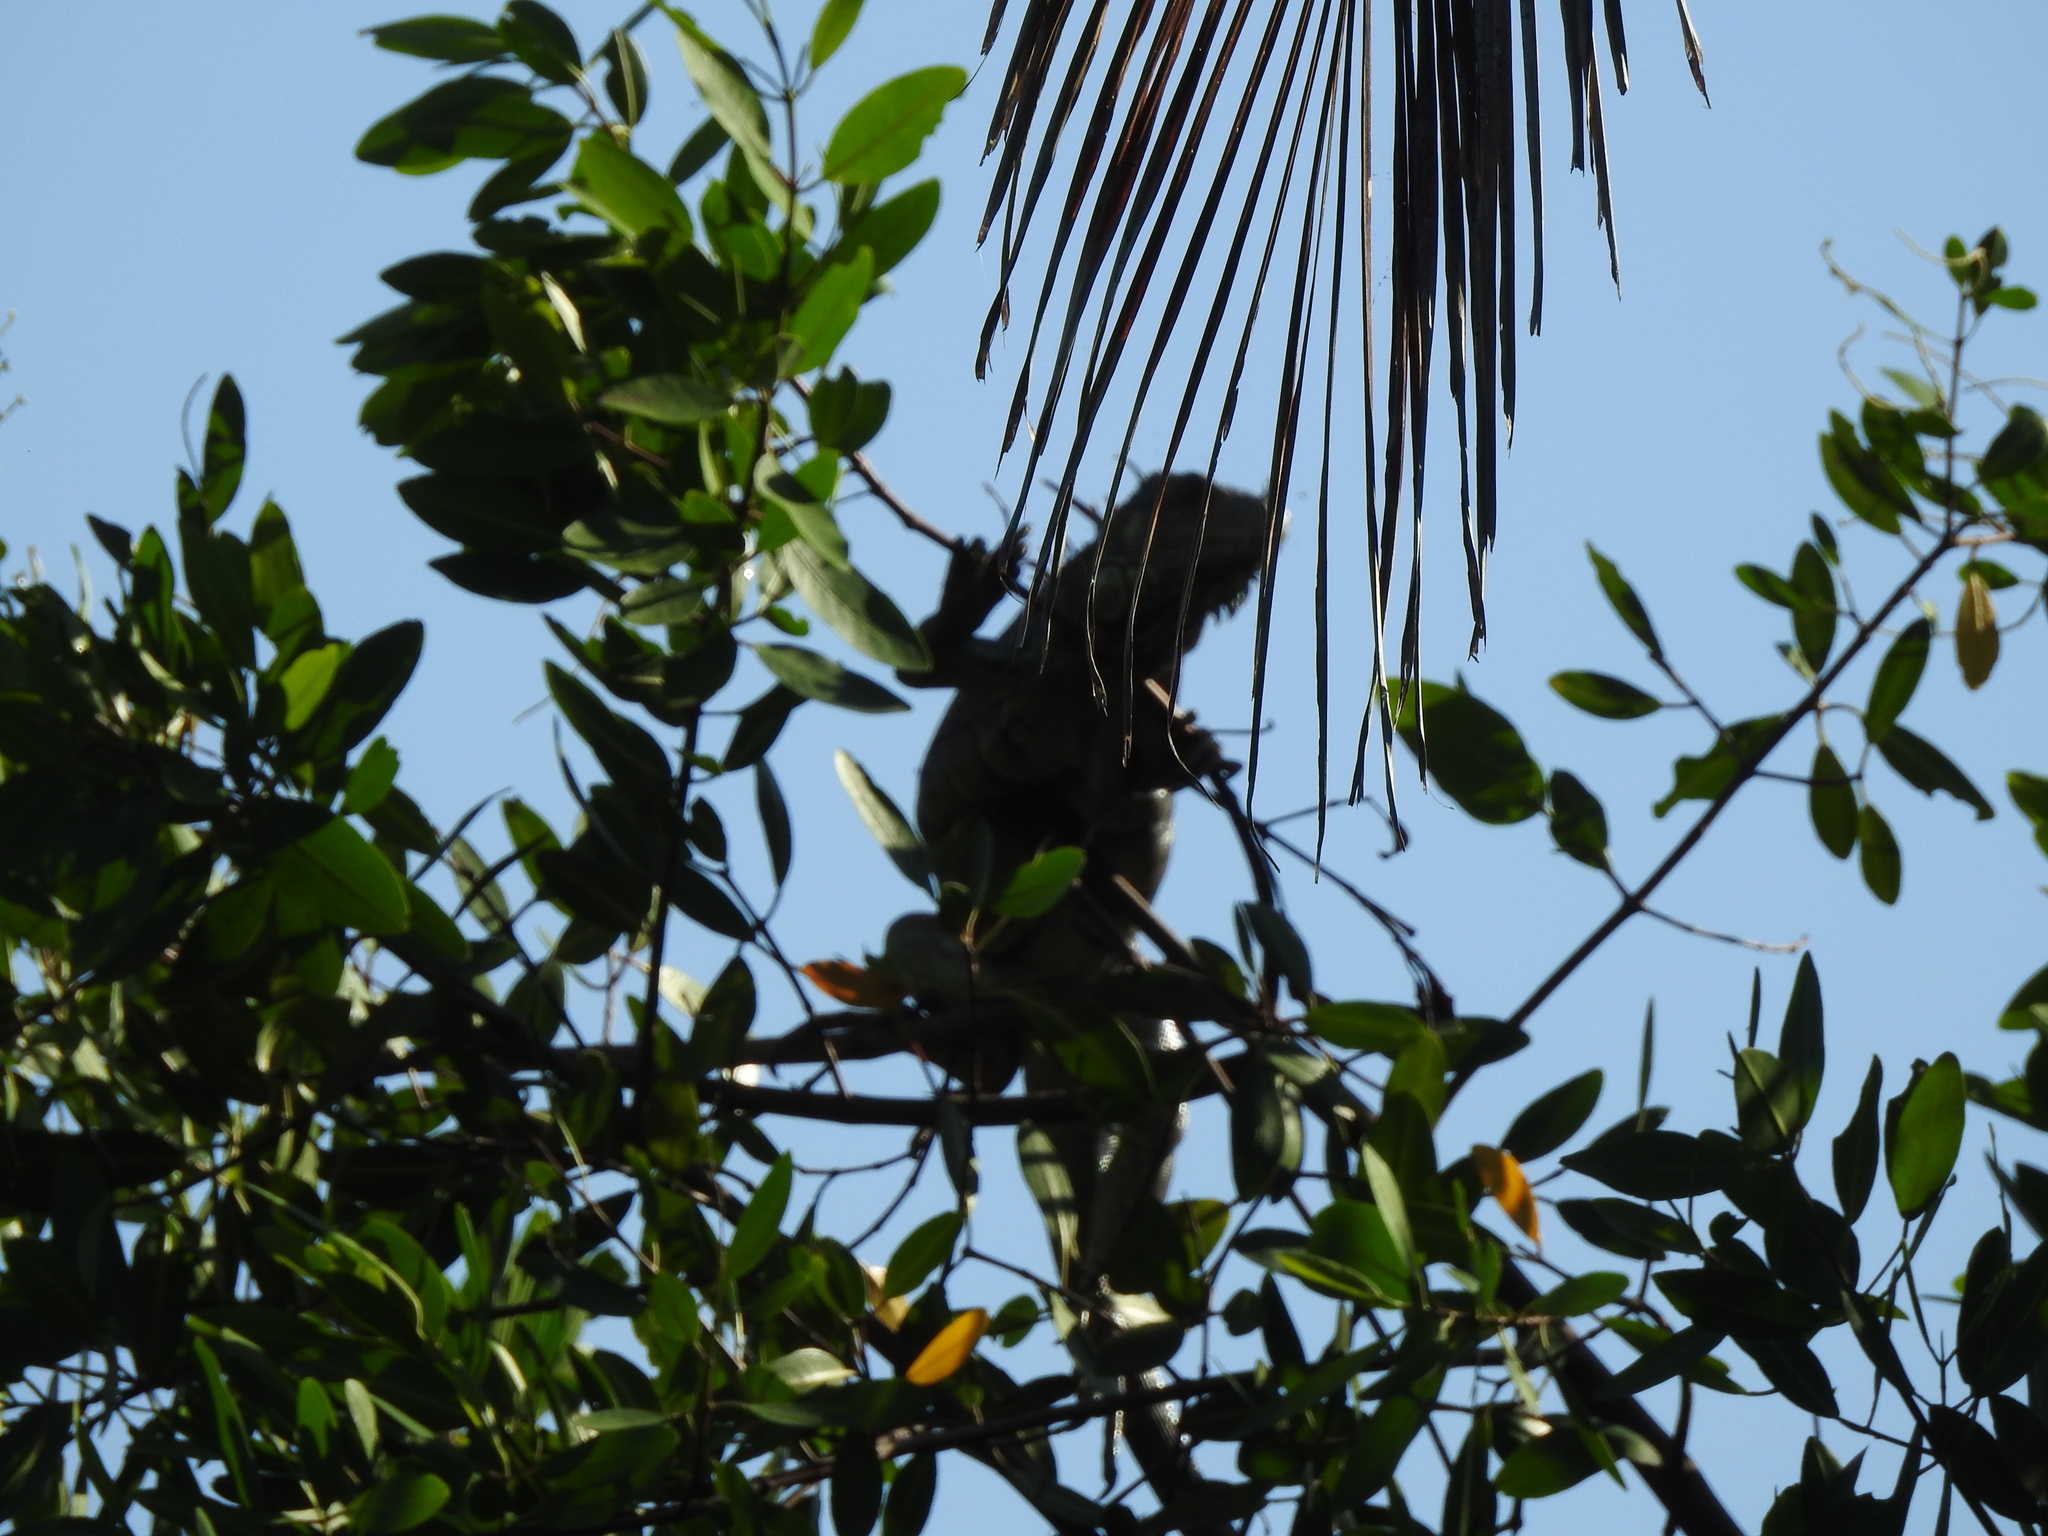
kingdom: Animalia
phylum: Chordata
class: Squamata
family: Iguanidae
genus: Iguana
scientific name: Iguana iguana
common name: Green iguana
